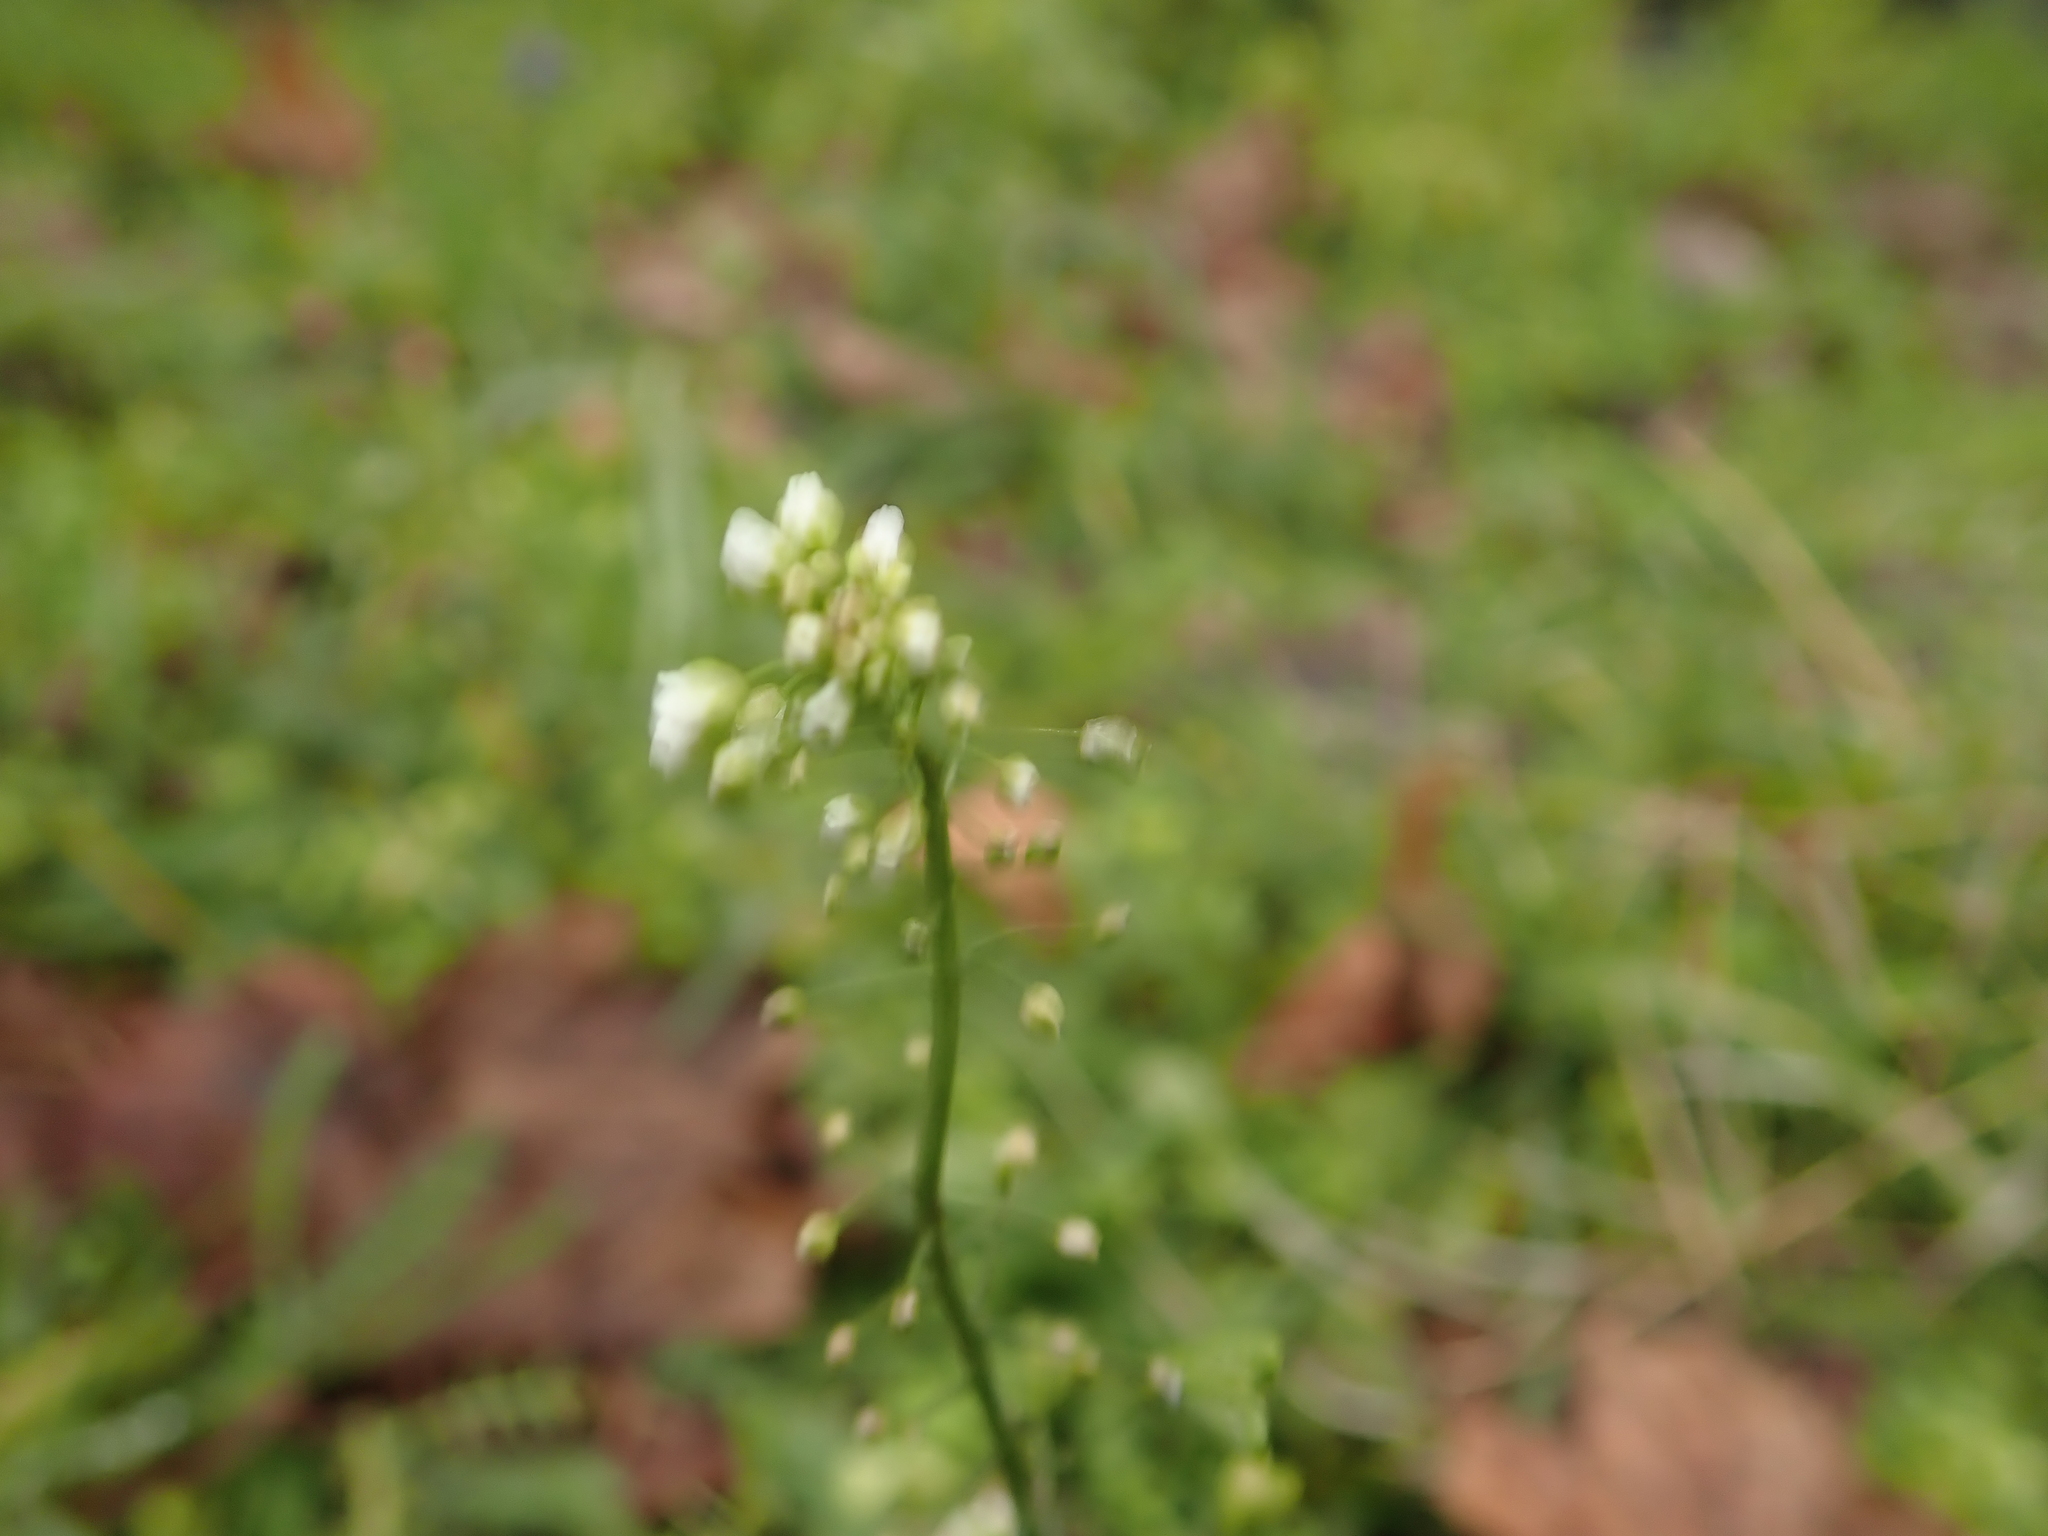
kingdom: Plantae
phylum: Tracheophyta
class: Magnoliopsida
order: Brassicales
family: Brassicaceae
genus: Capsella
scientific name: Capsella bursa-pastoris
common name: Shepherd's purse
